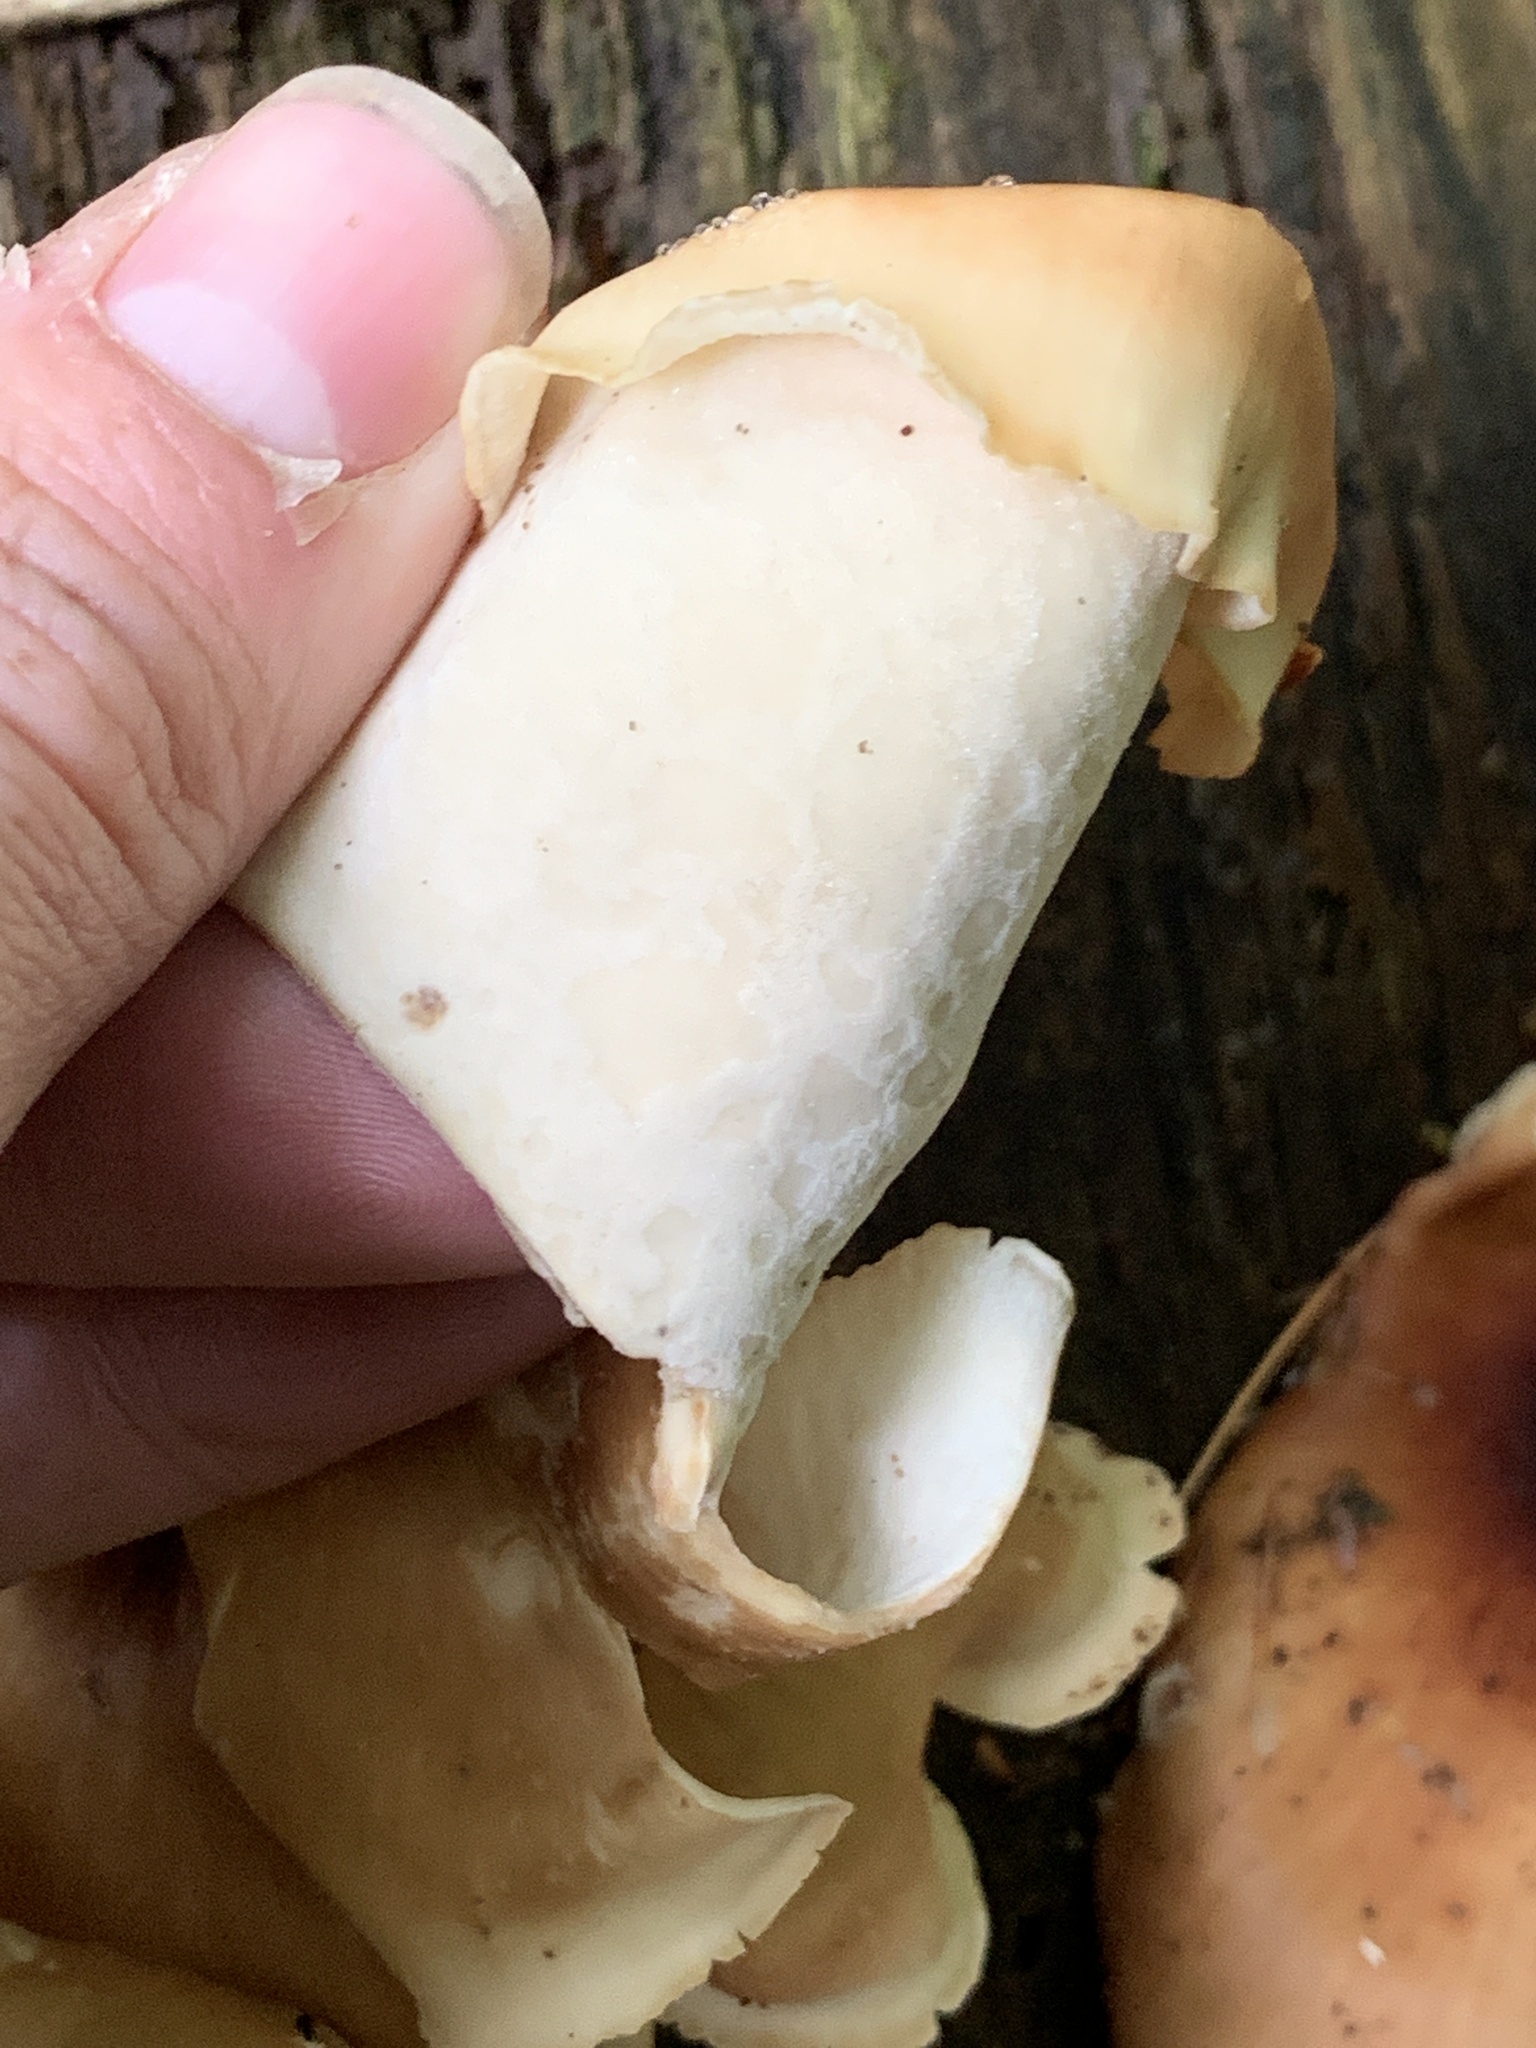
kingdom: Fungi
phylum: Basidiomycota
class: Agaricomycetes
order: Polyporales
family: Polyporaceae
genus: Picipes
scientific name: Picipes badius
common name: Bay polypore
